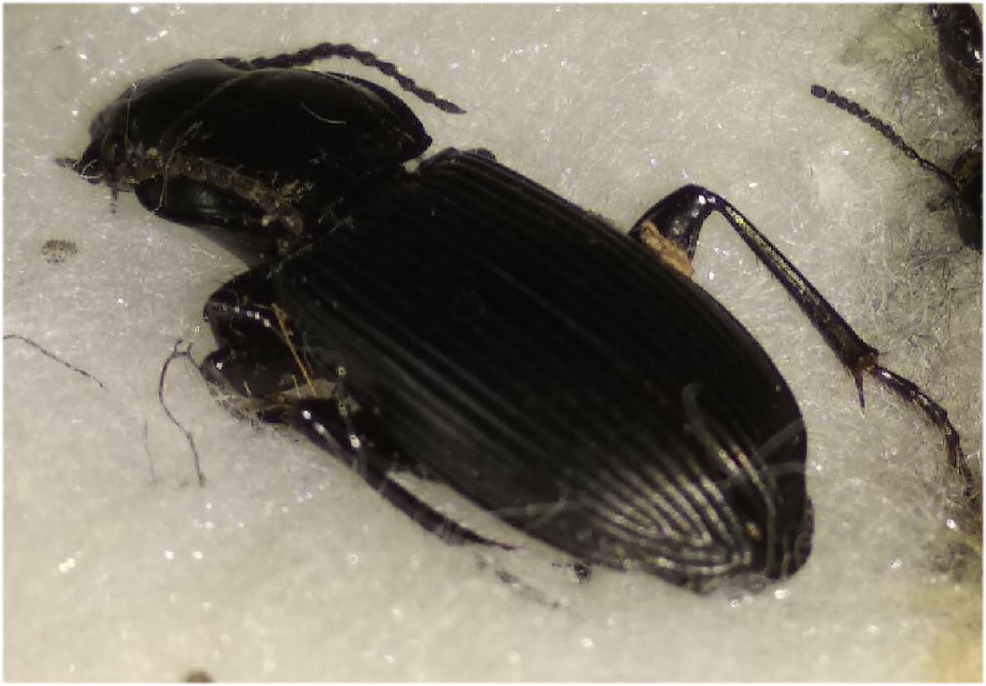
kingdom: Animalia
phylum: Arthropoda
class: Insecta
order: Coleoptera
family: Carabidae
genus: Pterostichus
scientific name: Pterostichus melanarius
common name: European dark harp ground beetle
